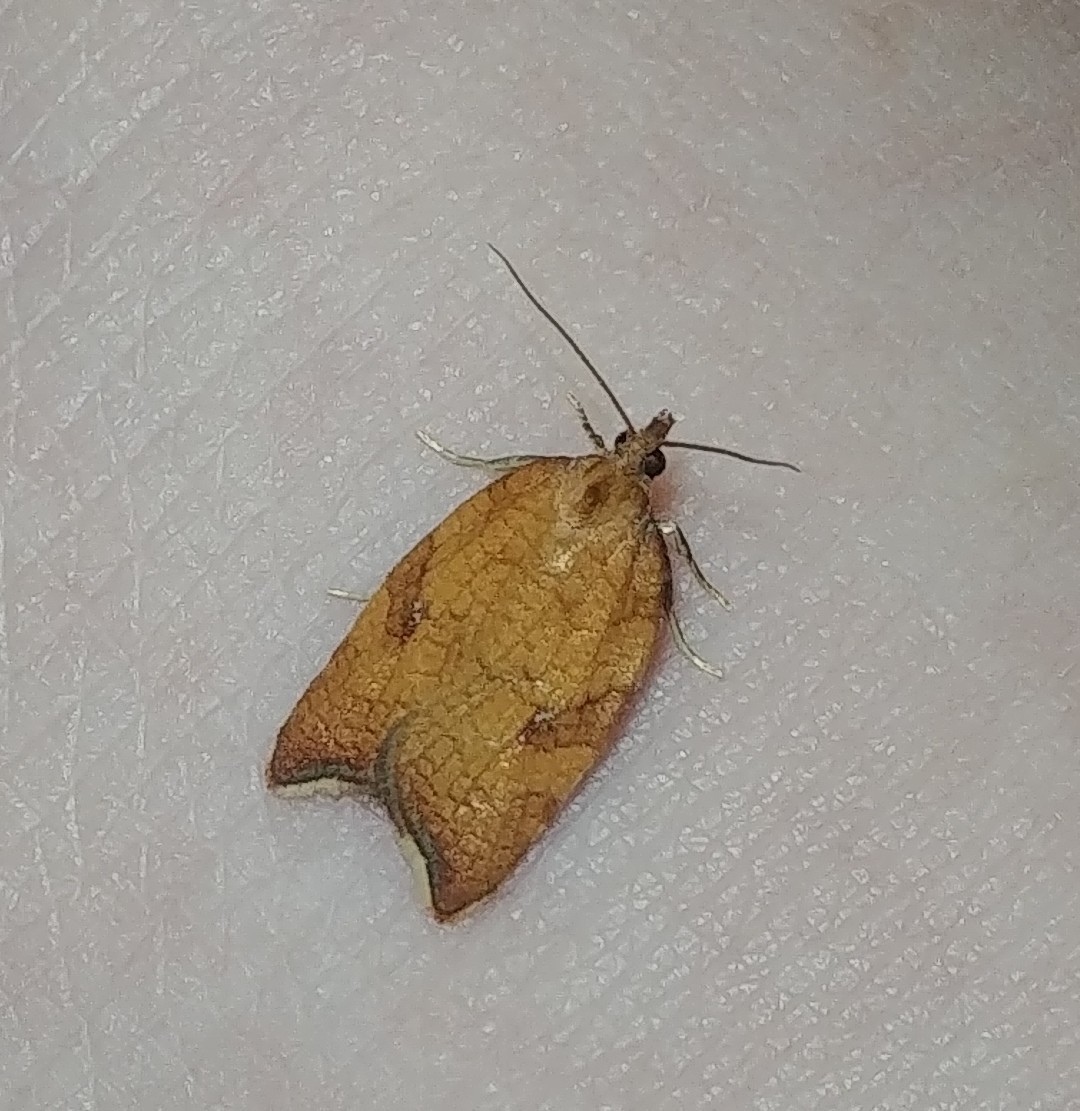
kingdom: Animalia
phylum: Arthropoda
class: Insecta
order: Lepidoptera
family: Tortricidae
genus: Acleris
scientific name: Acleris rhombana
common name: Tortricid moth
